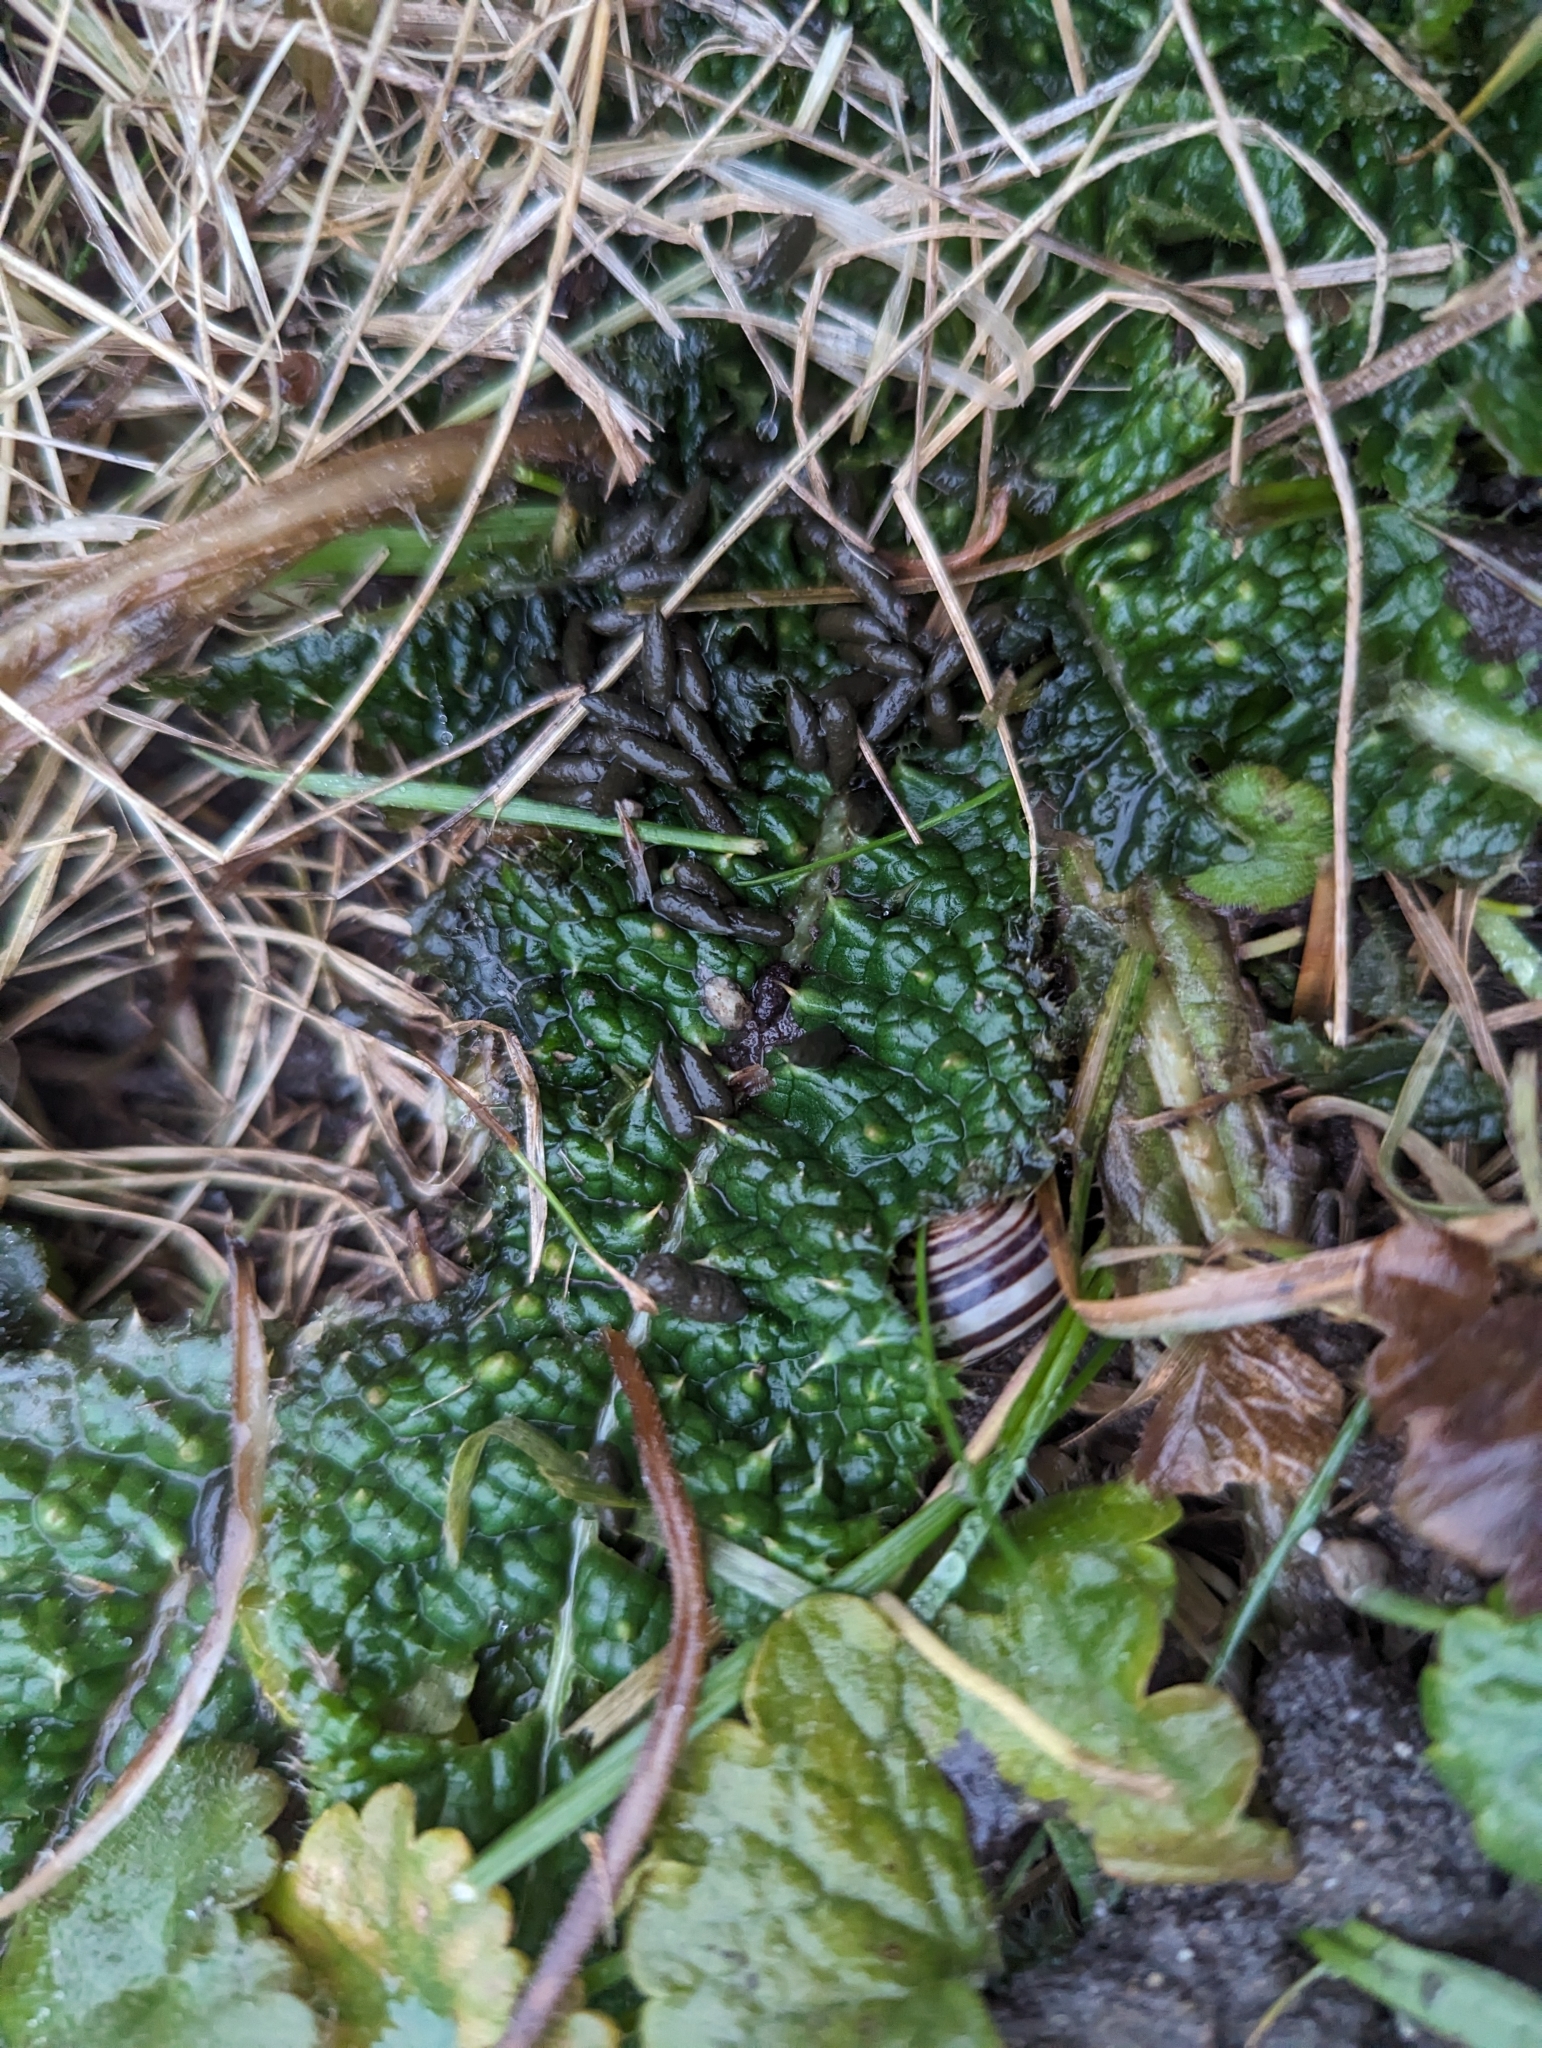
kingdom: Plantae
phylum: Tracheophyta
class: Magnoliopsida
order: Dipsacales
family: Caprifoliaceae
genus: Dipsacus
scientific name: Dipsacus fullonum
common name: Teasel
